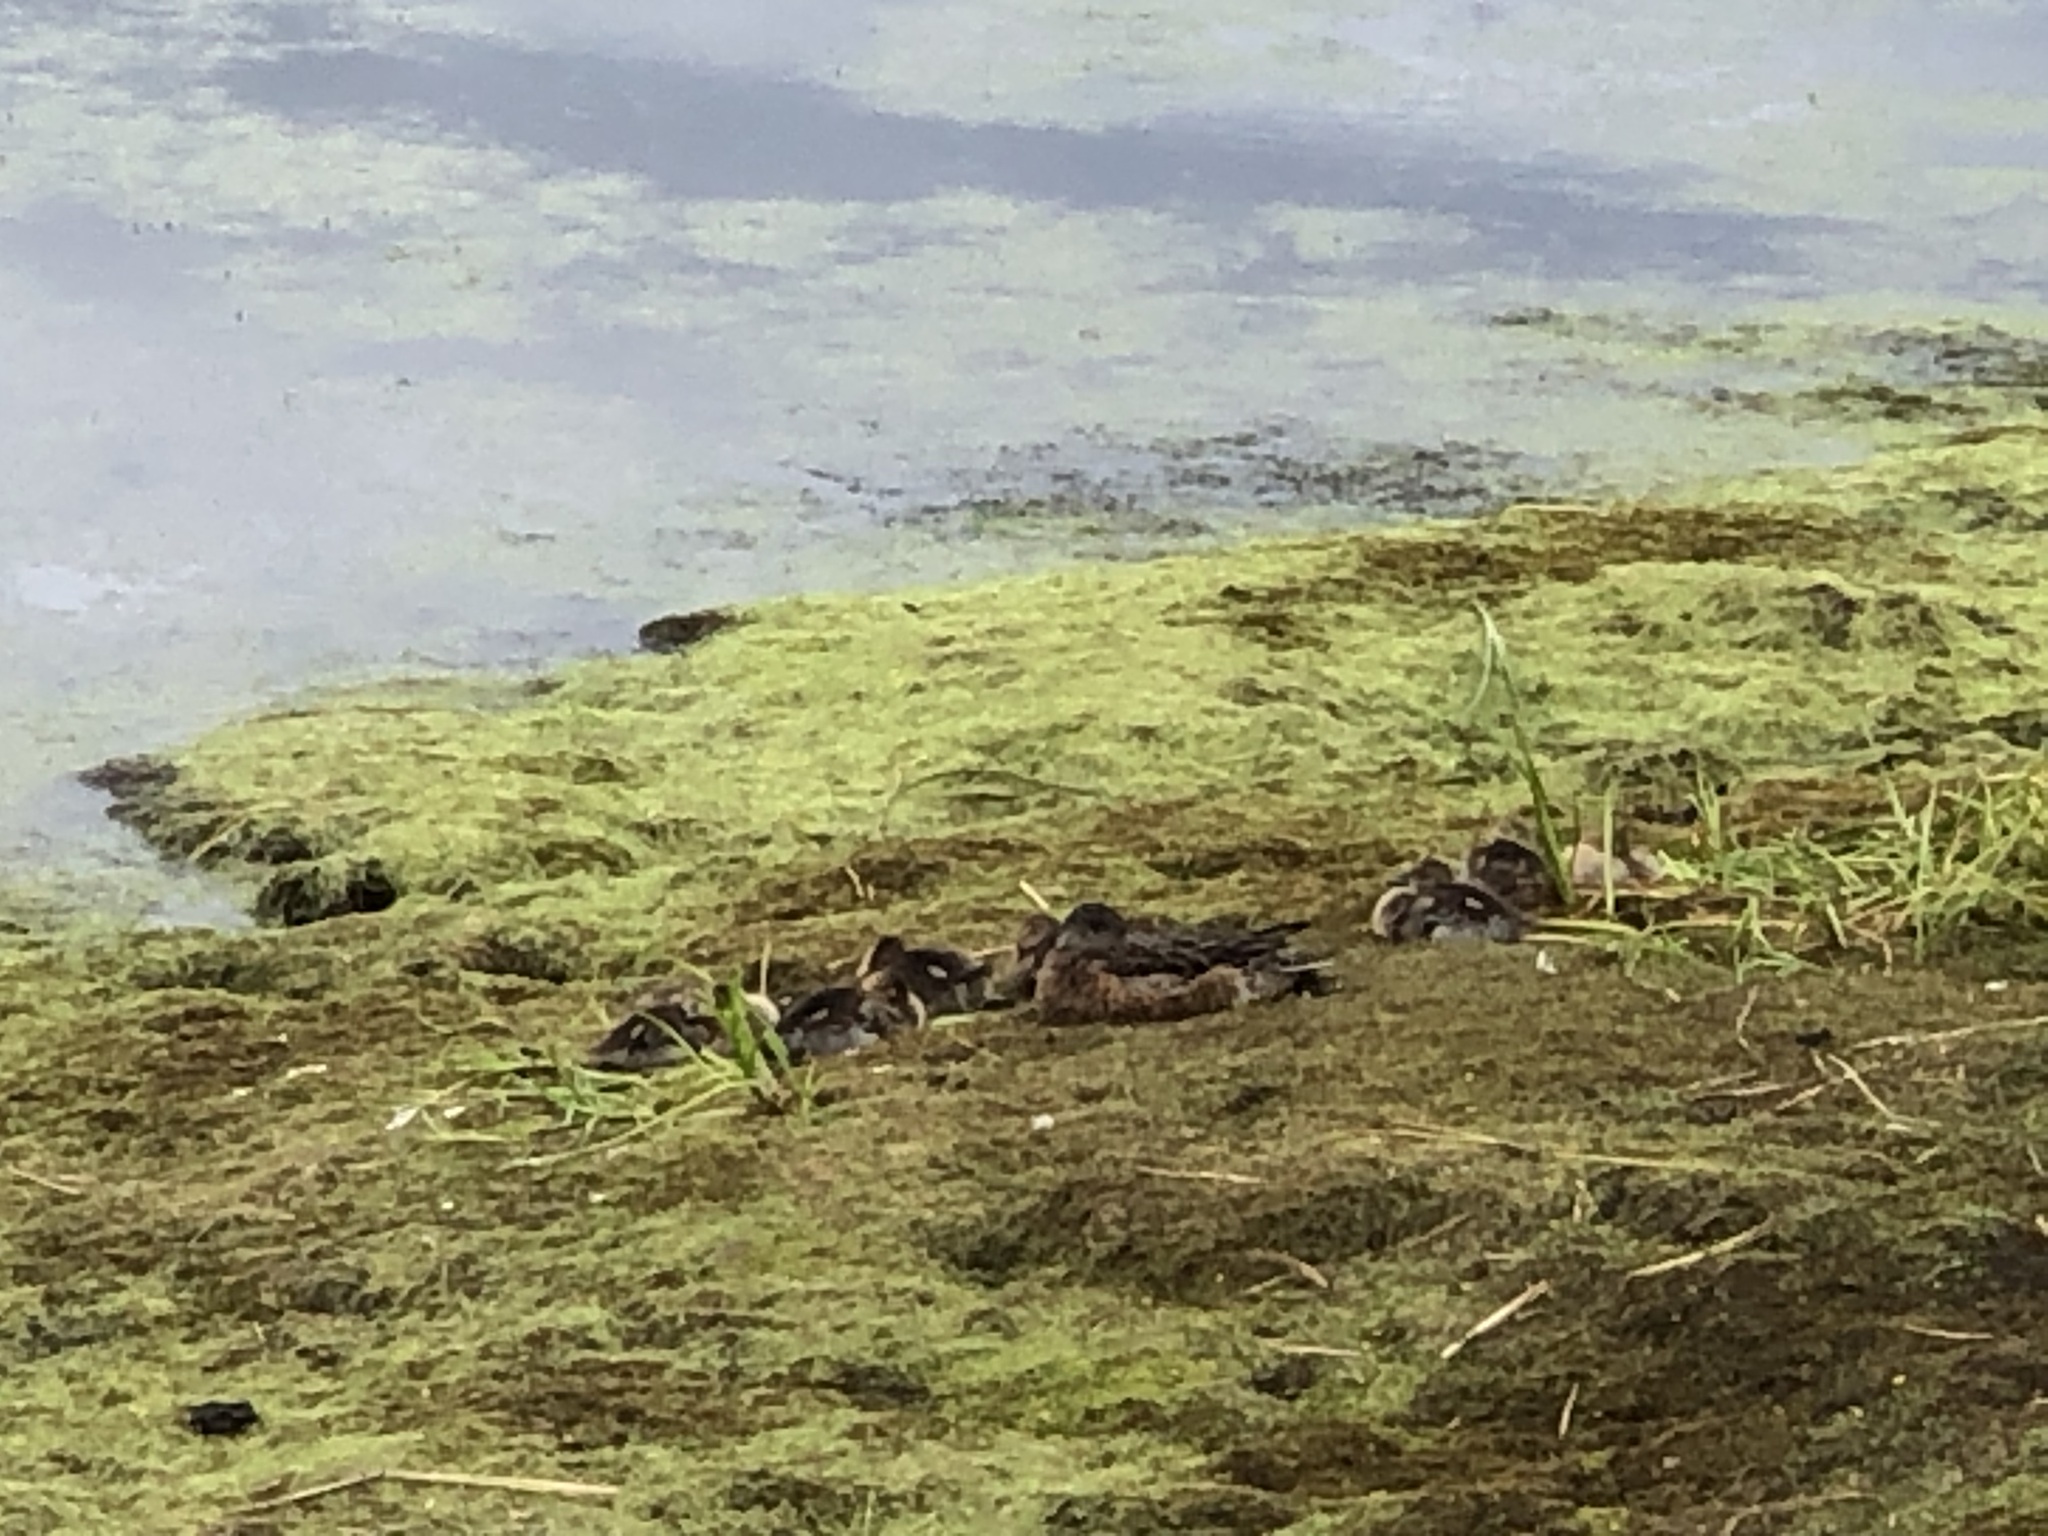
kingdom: Animalia
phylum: Chordata
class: Aves
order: Anseriformes
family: Anatidae
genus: Mareca
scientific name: Mareca americana
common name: American wigeon
